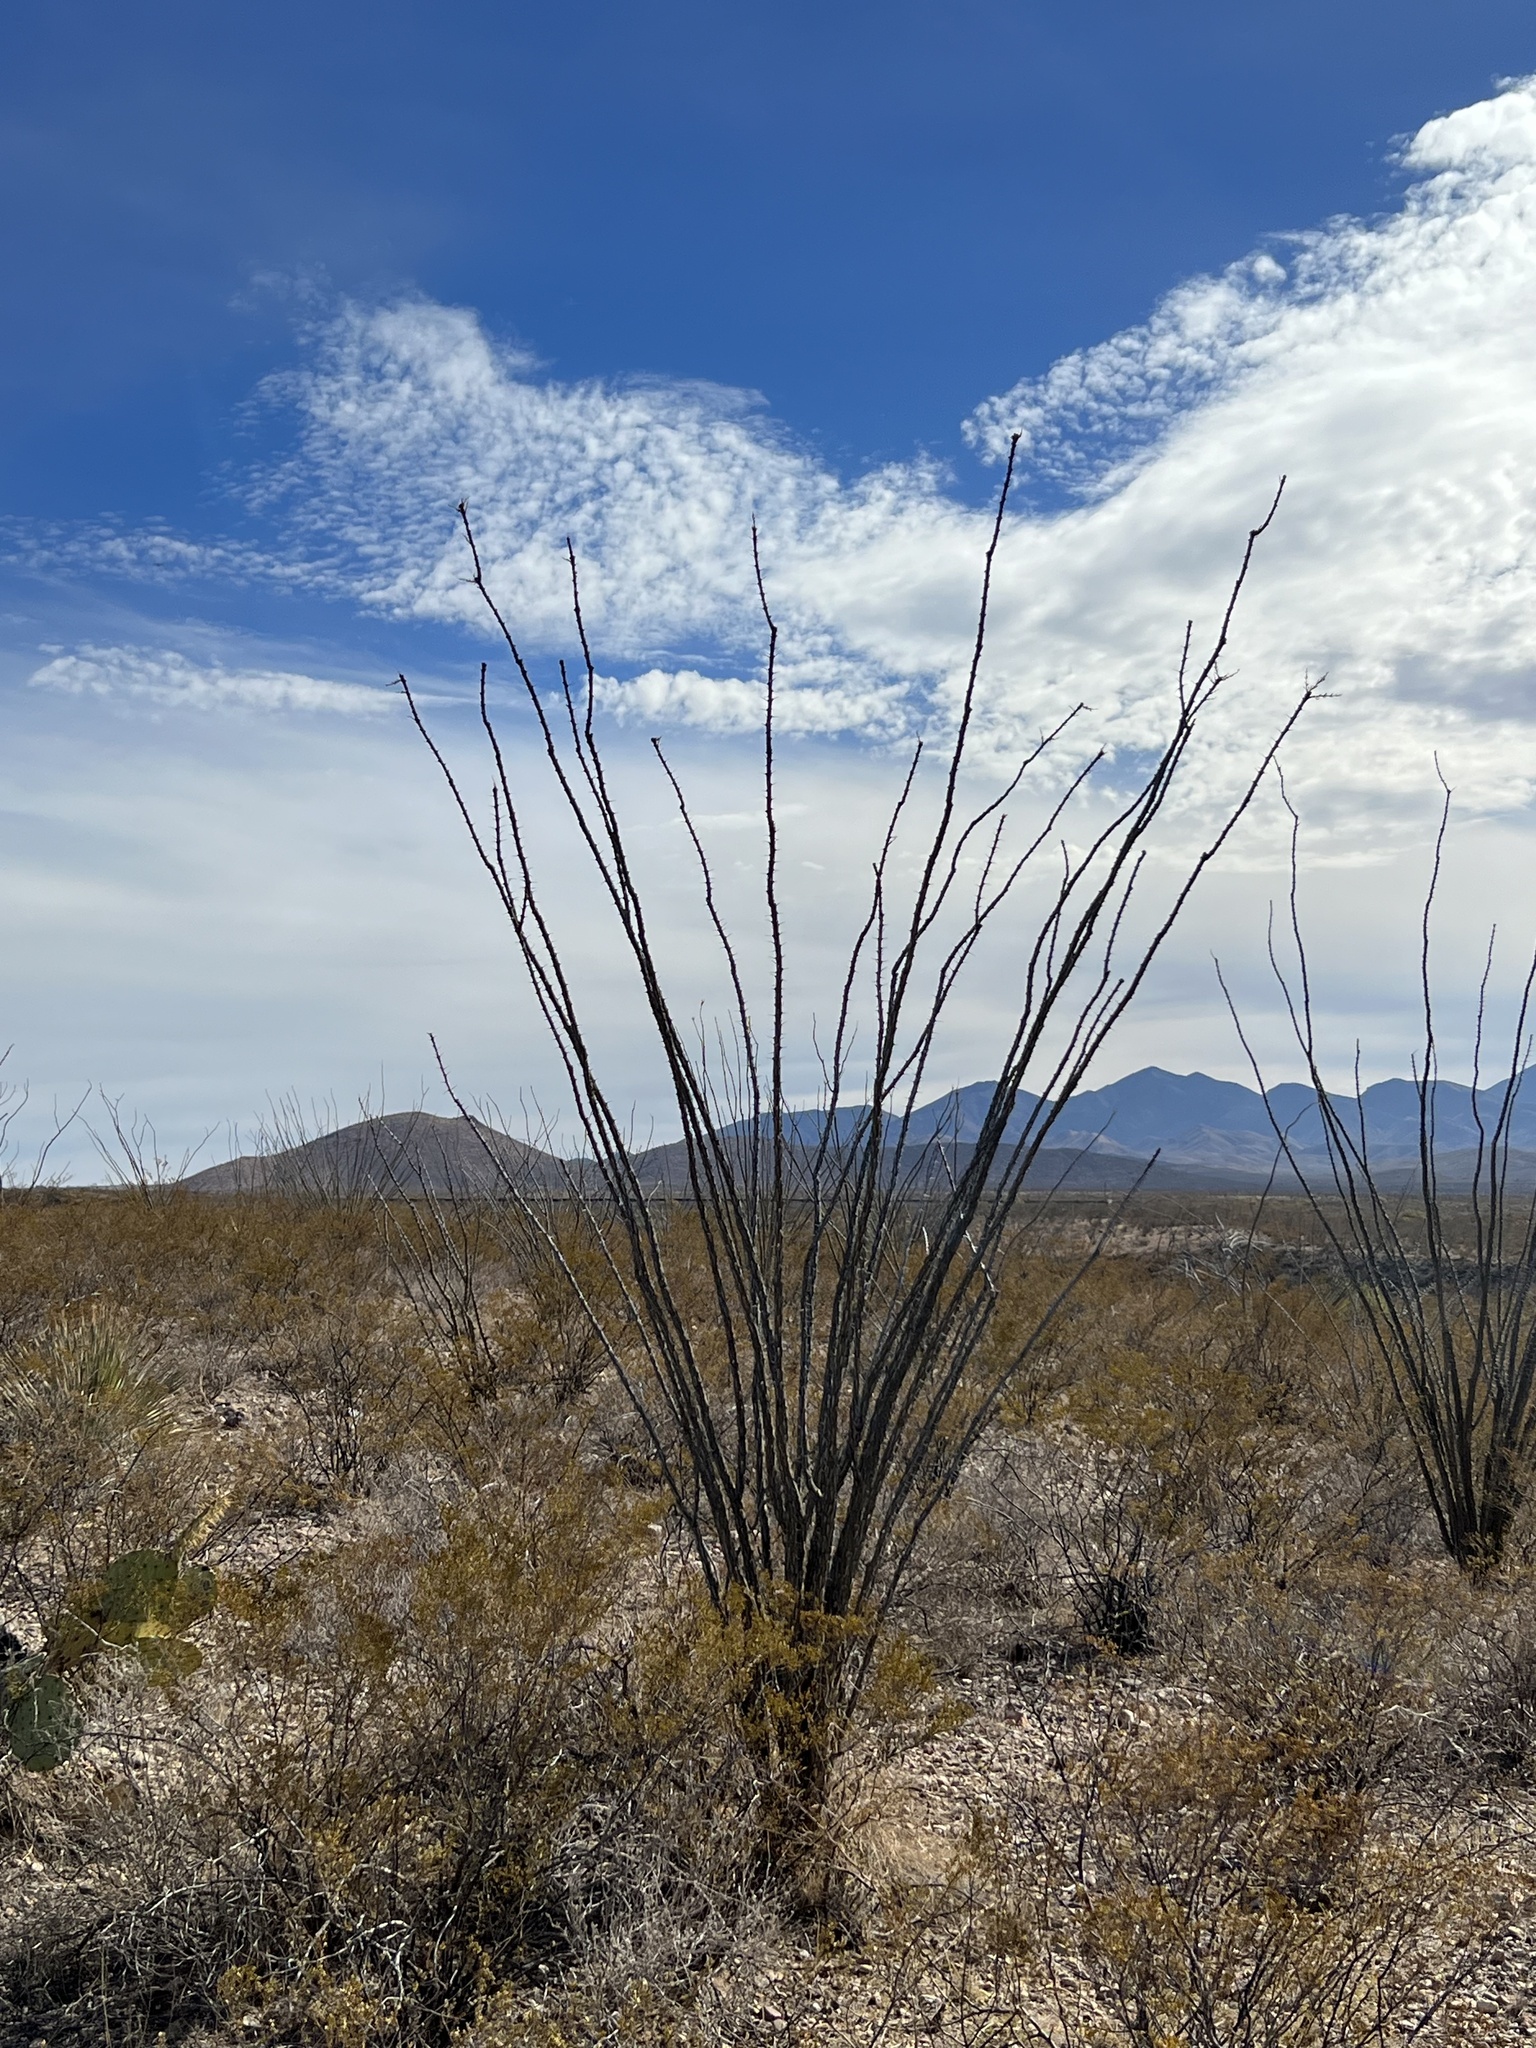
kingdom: Plantae
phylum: Tracheophyta
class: Magnoliopsida
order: Ericales
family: Fouquieriaceae
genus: Fouquieria
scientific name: Fouquieria splendens
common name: Vine-cactus
